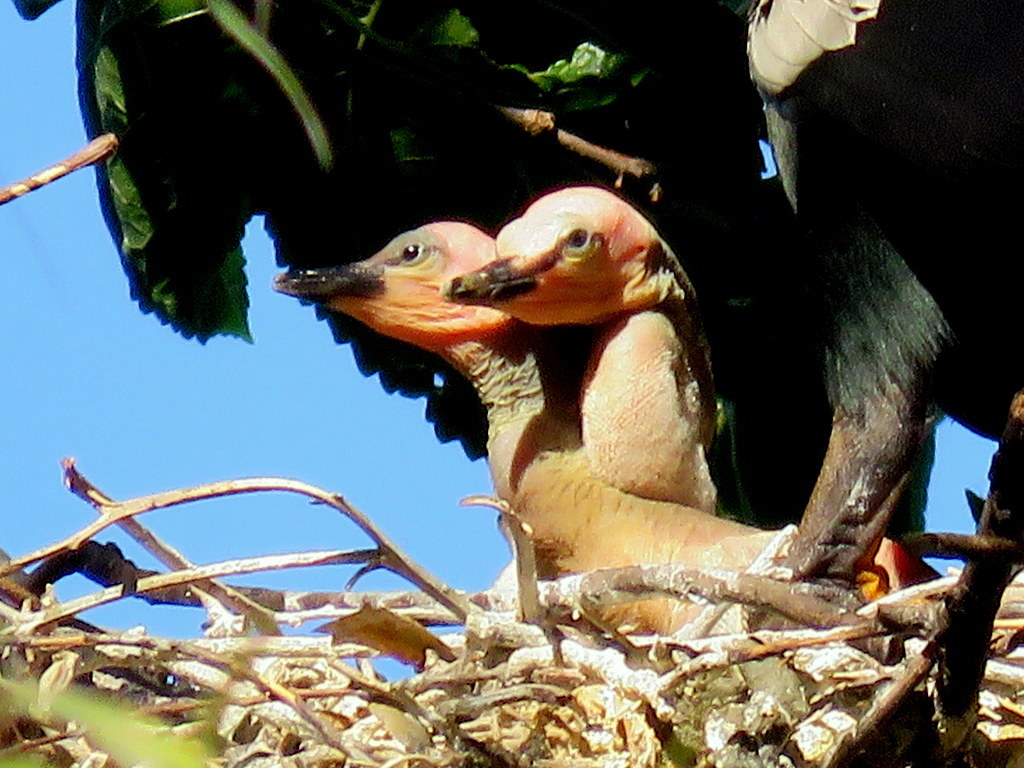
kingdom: Animalia
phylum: Chordata
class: Aves
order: Suliformes
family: Anhingidae
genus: Anhinga
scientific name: Anhinga anhinga
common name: Anhinga
